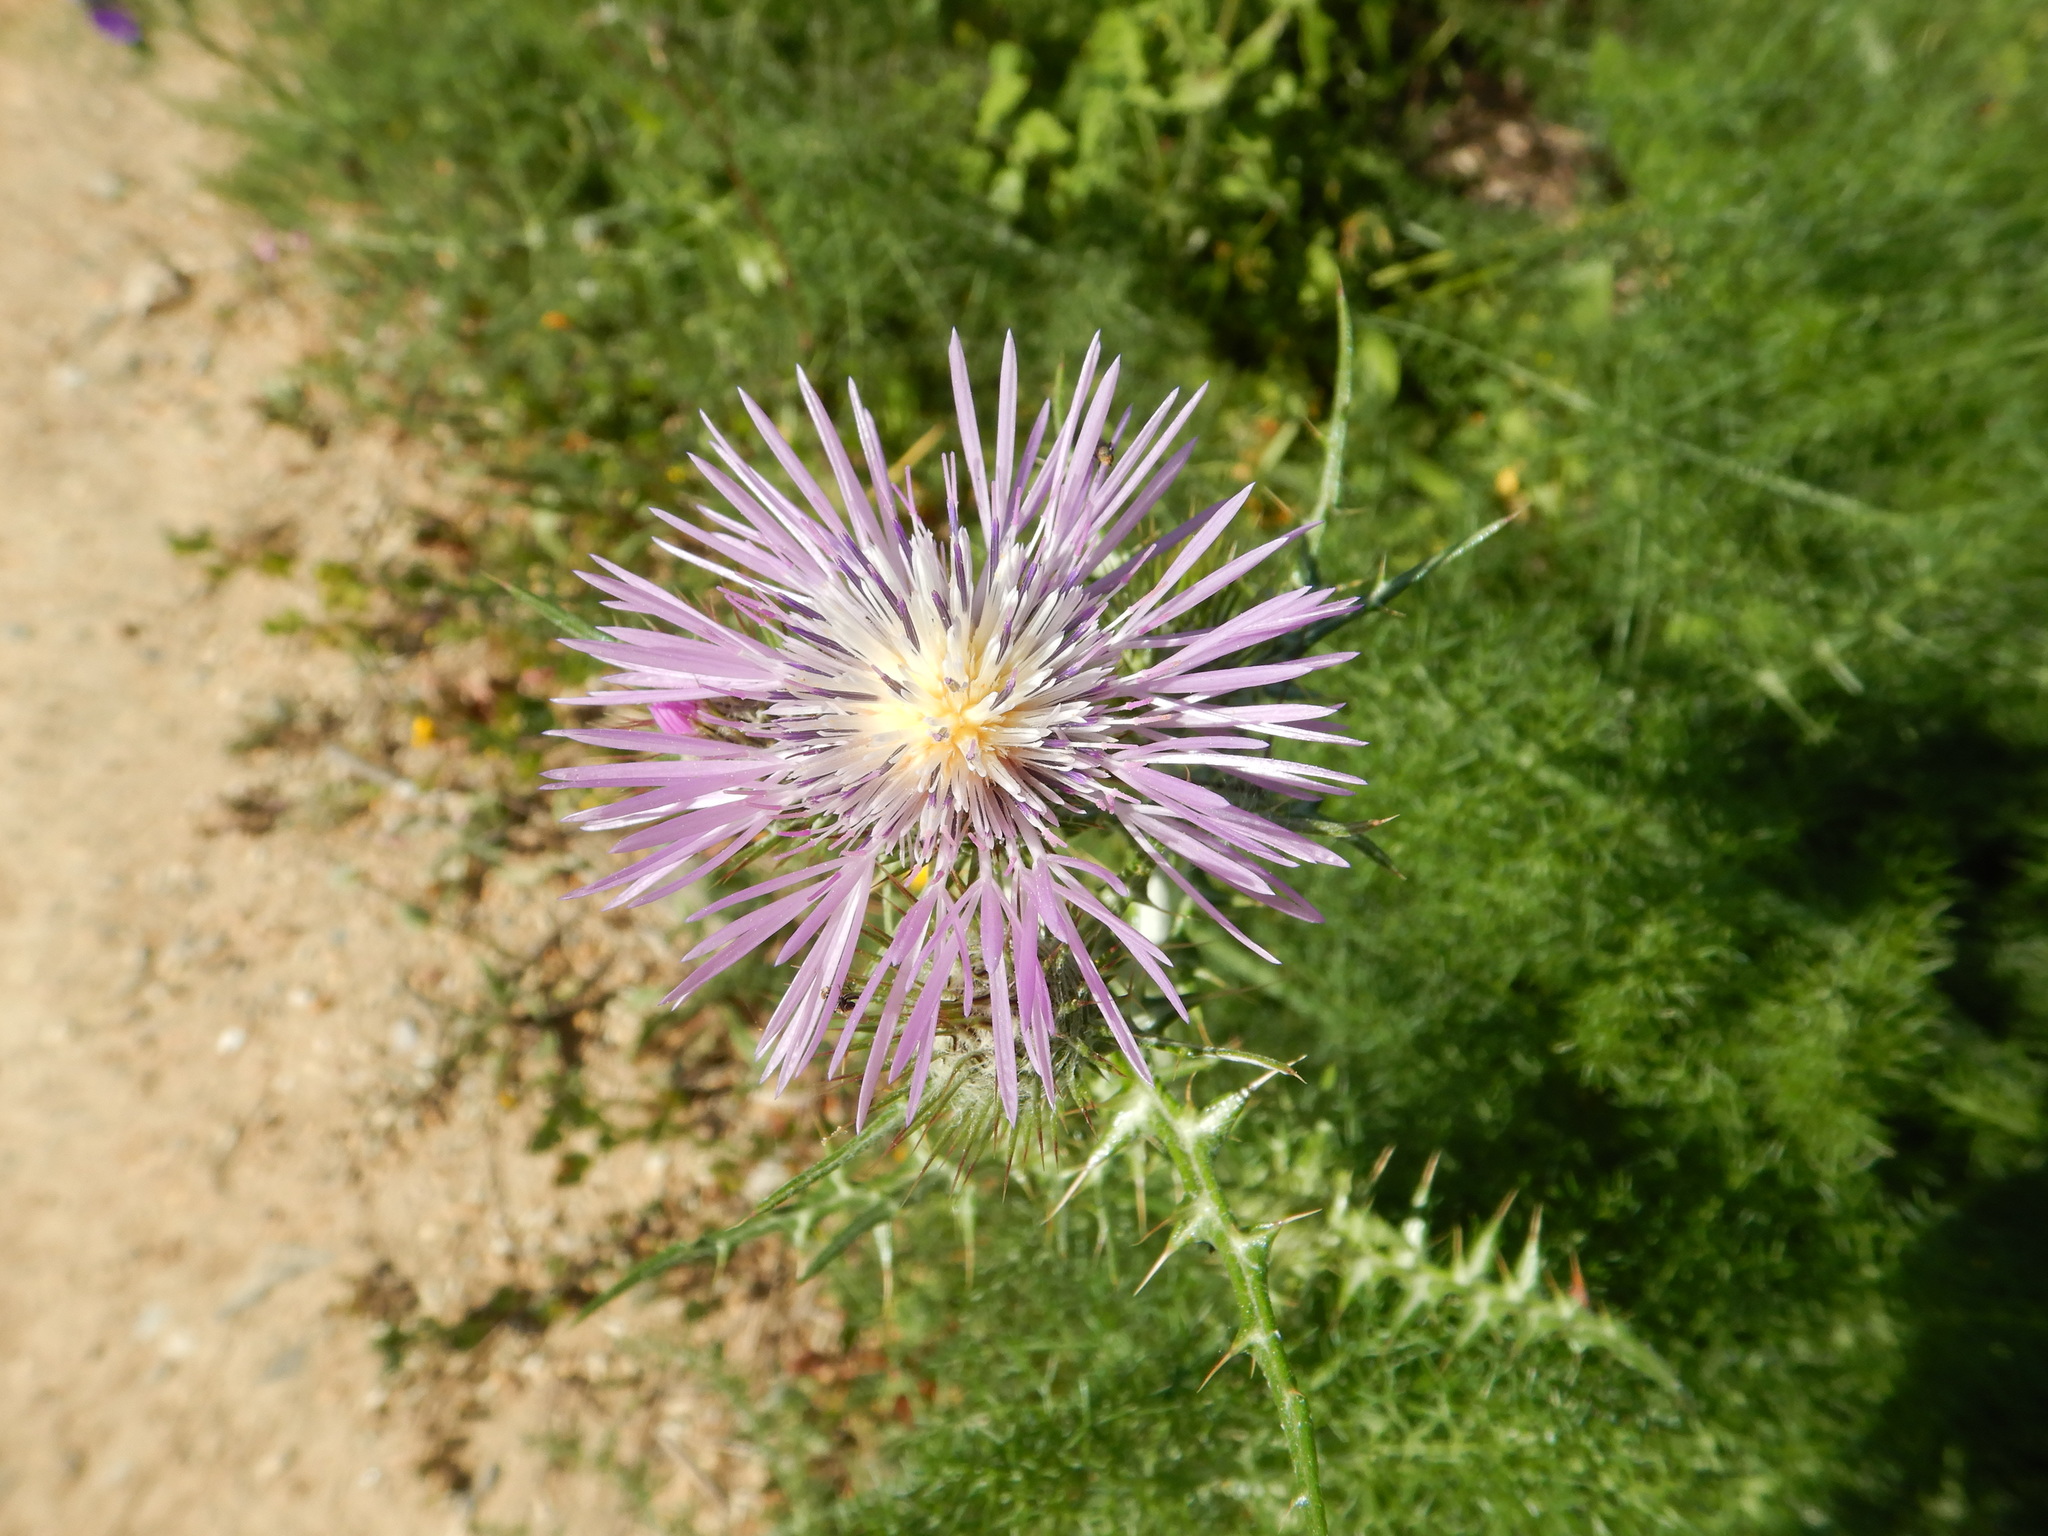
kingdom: Plantae
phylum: Tracheophyta
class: Magnoliopsida
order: Asterales
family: Asteraceae
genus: Galactites
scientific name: Galactites tomentosa
